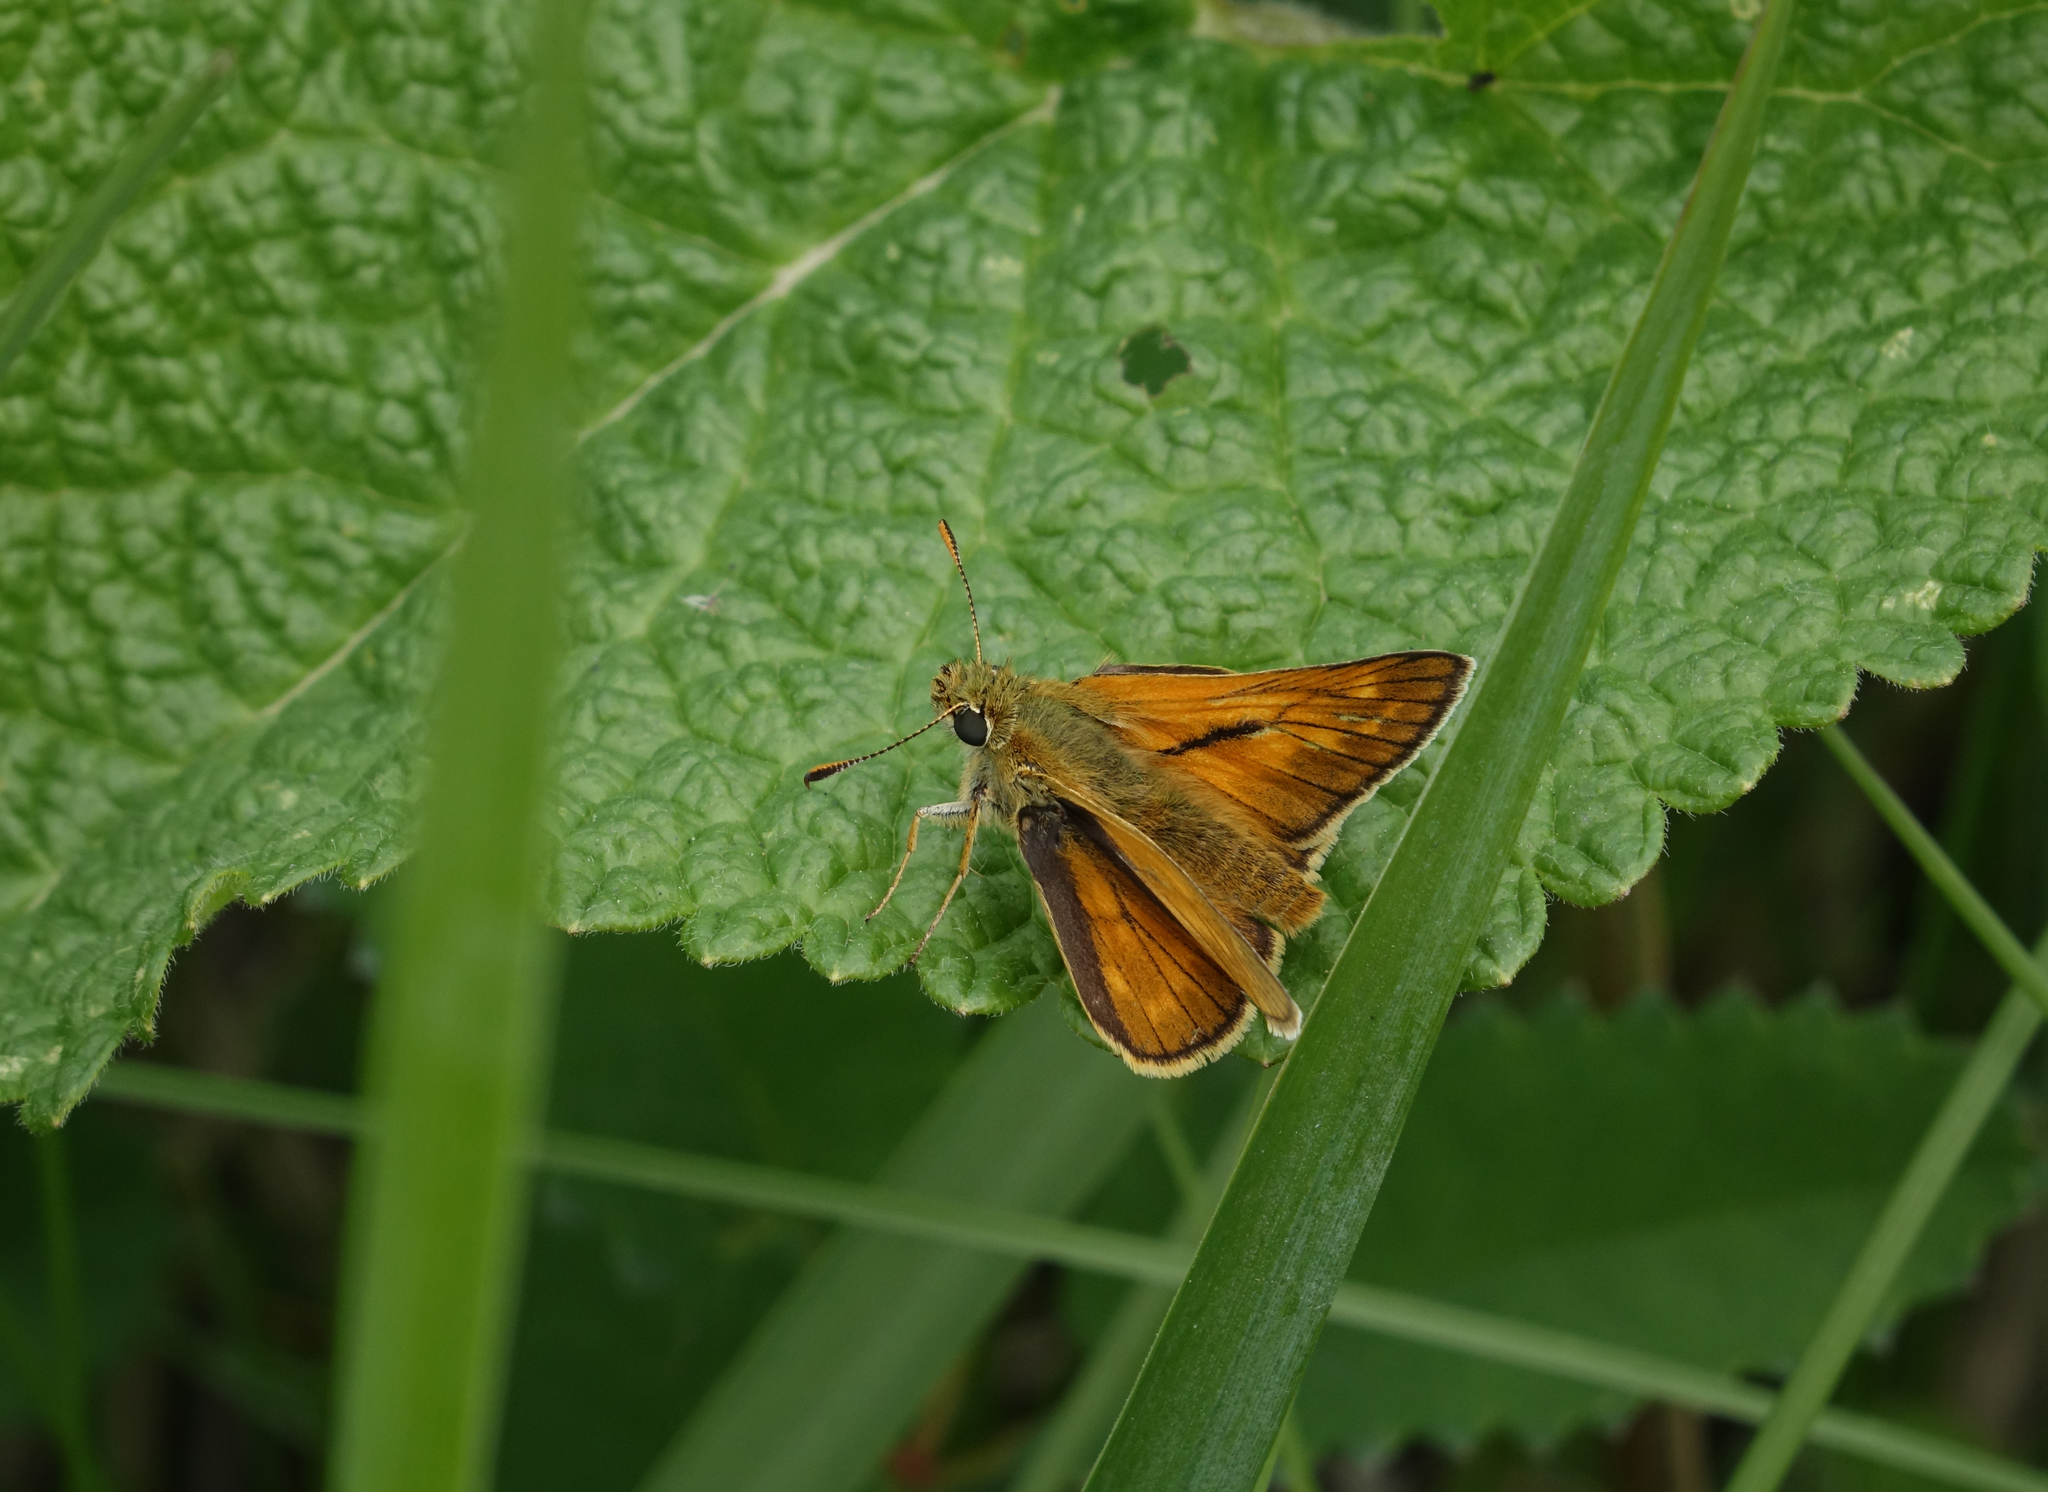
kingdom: Animalia
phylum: Arthropoda
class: Insecta
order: Lepidoptera
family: Hesperiidae
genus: Ochlodes
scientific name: Ochlodes venata
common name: Large skipper
